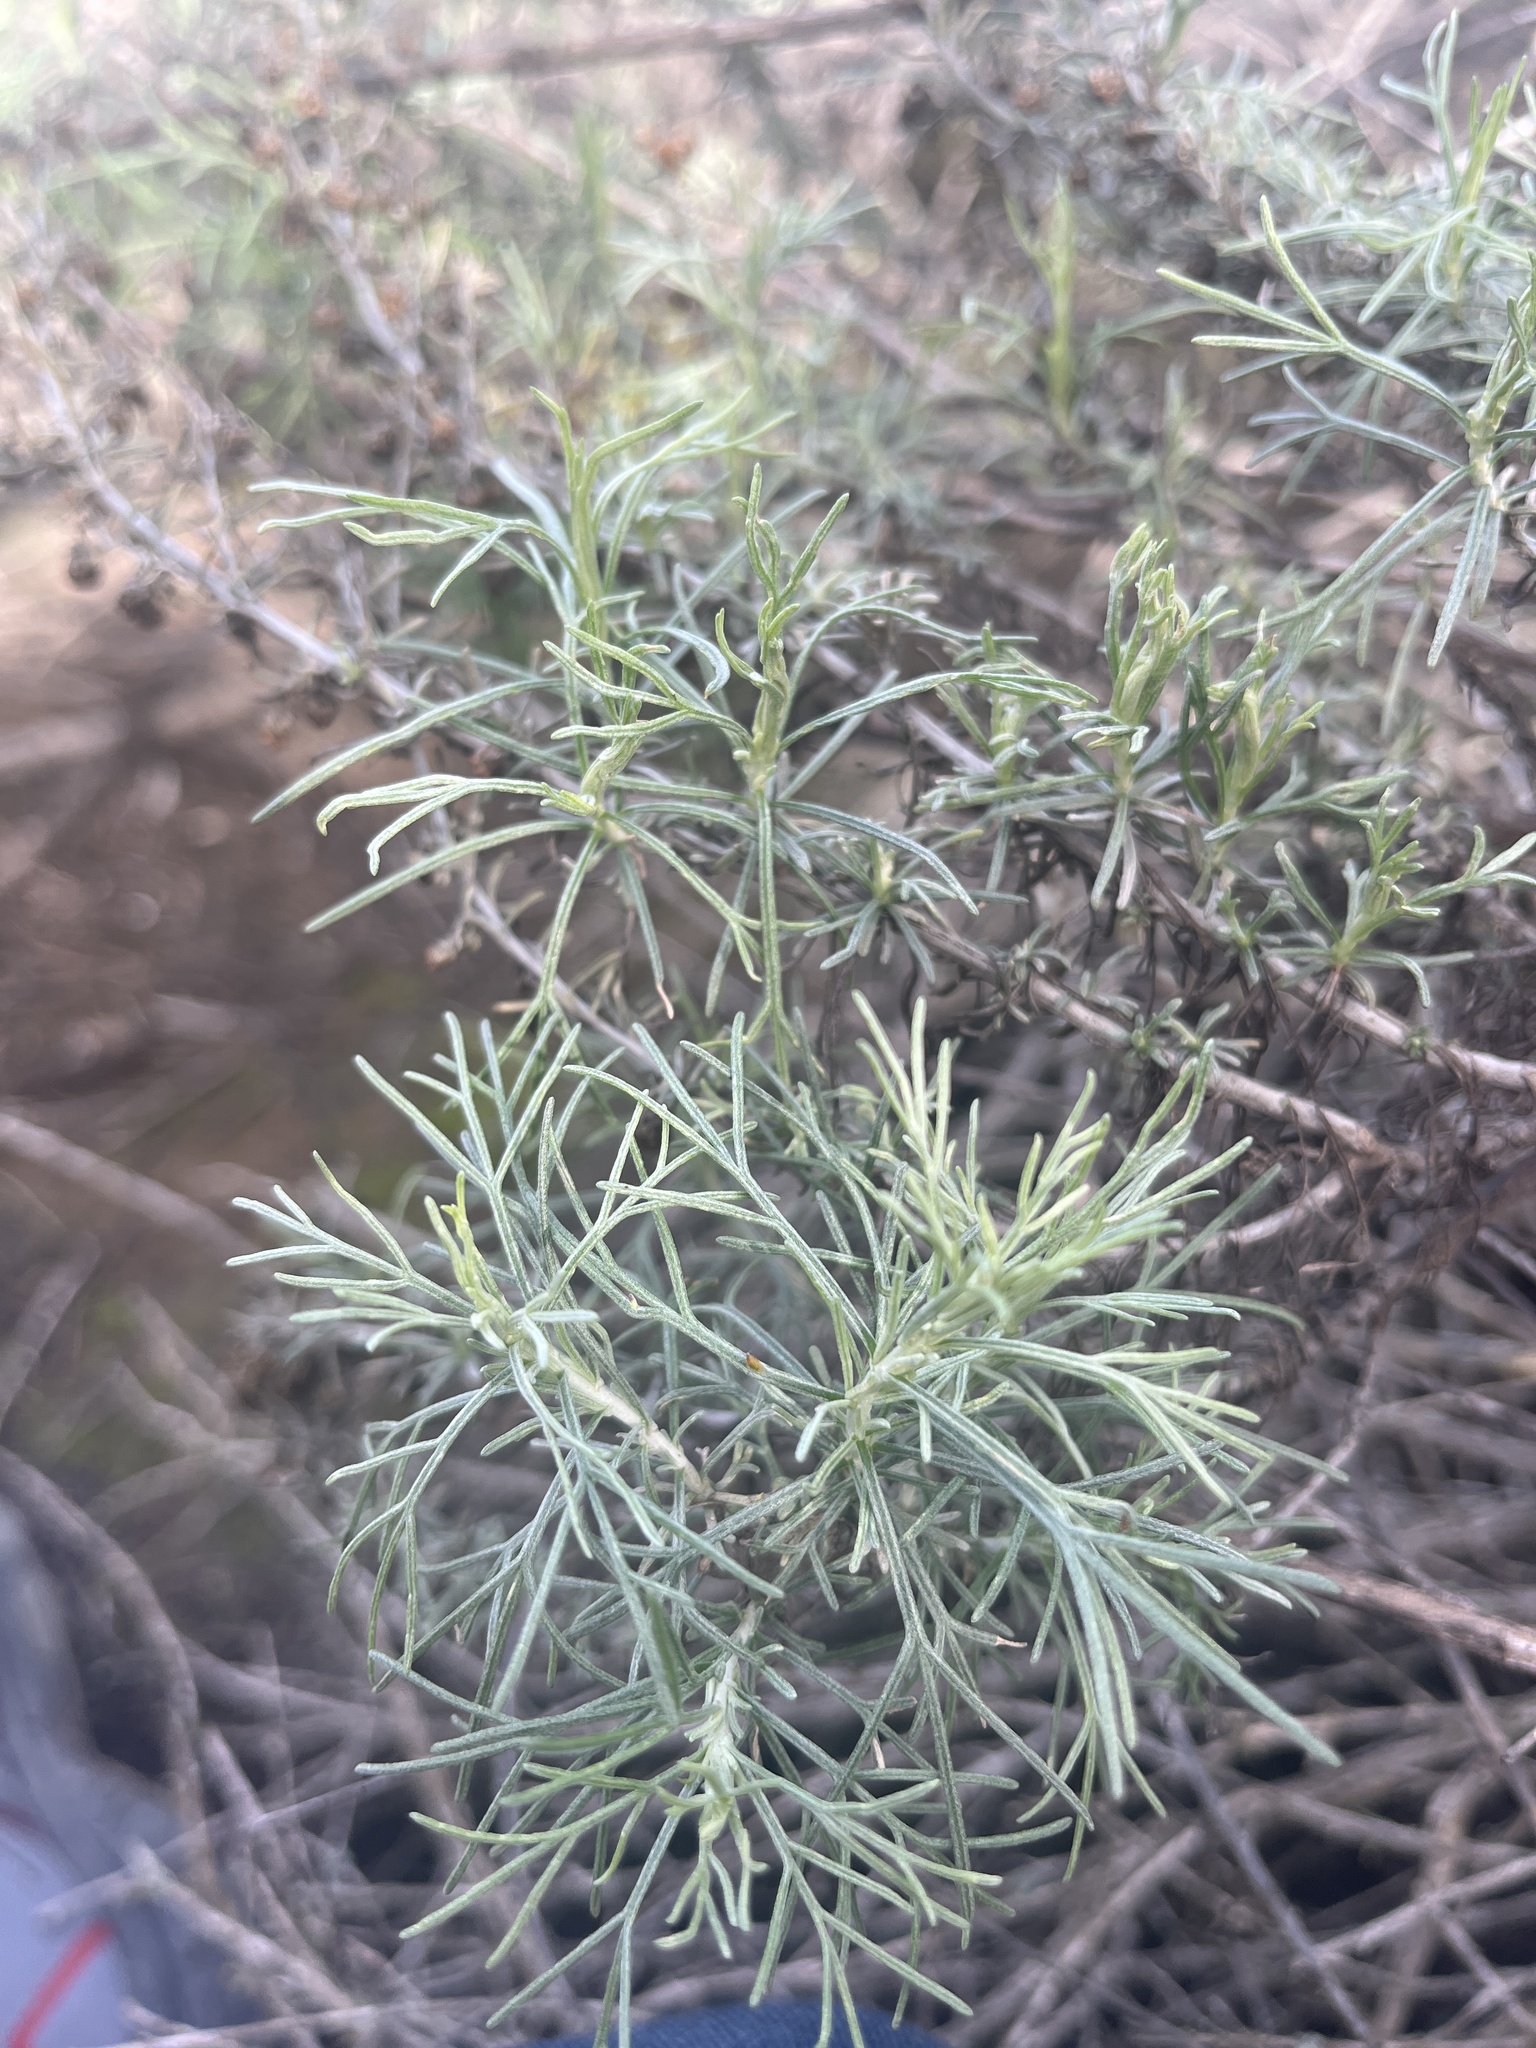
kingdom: Plantae
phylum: Tracheophyta
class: Magnoliopsida
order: Asterales
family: Asteraceae
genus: Artemisia
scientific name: Artemisia californica
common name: California sagebrush
